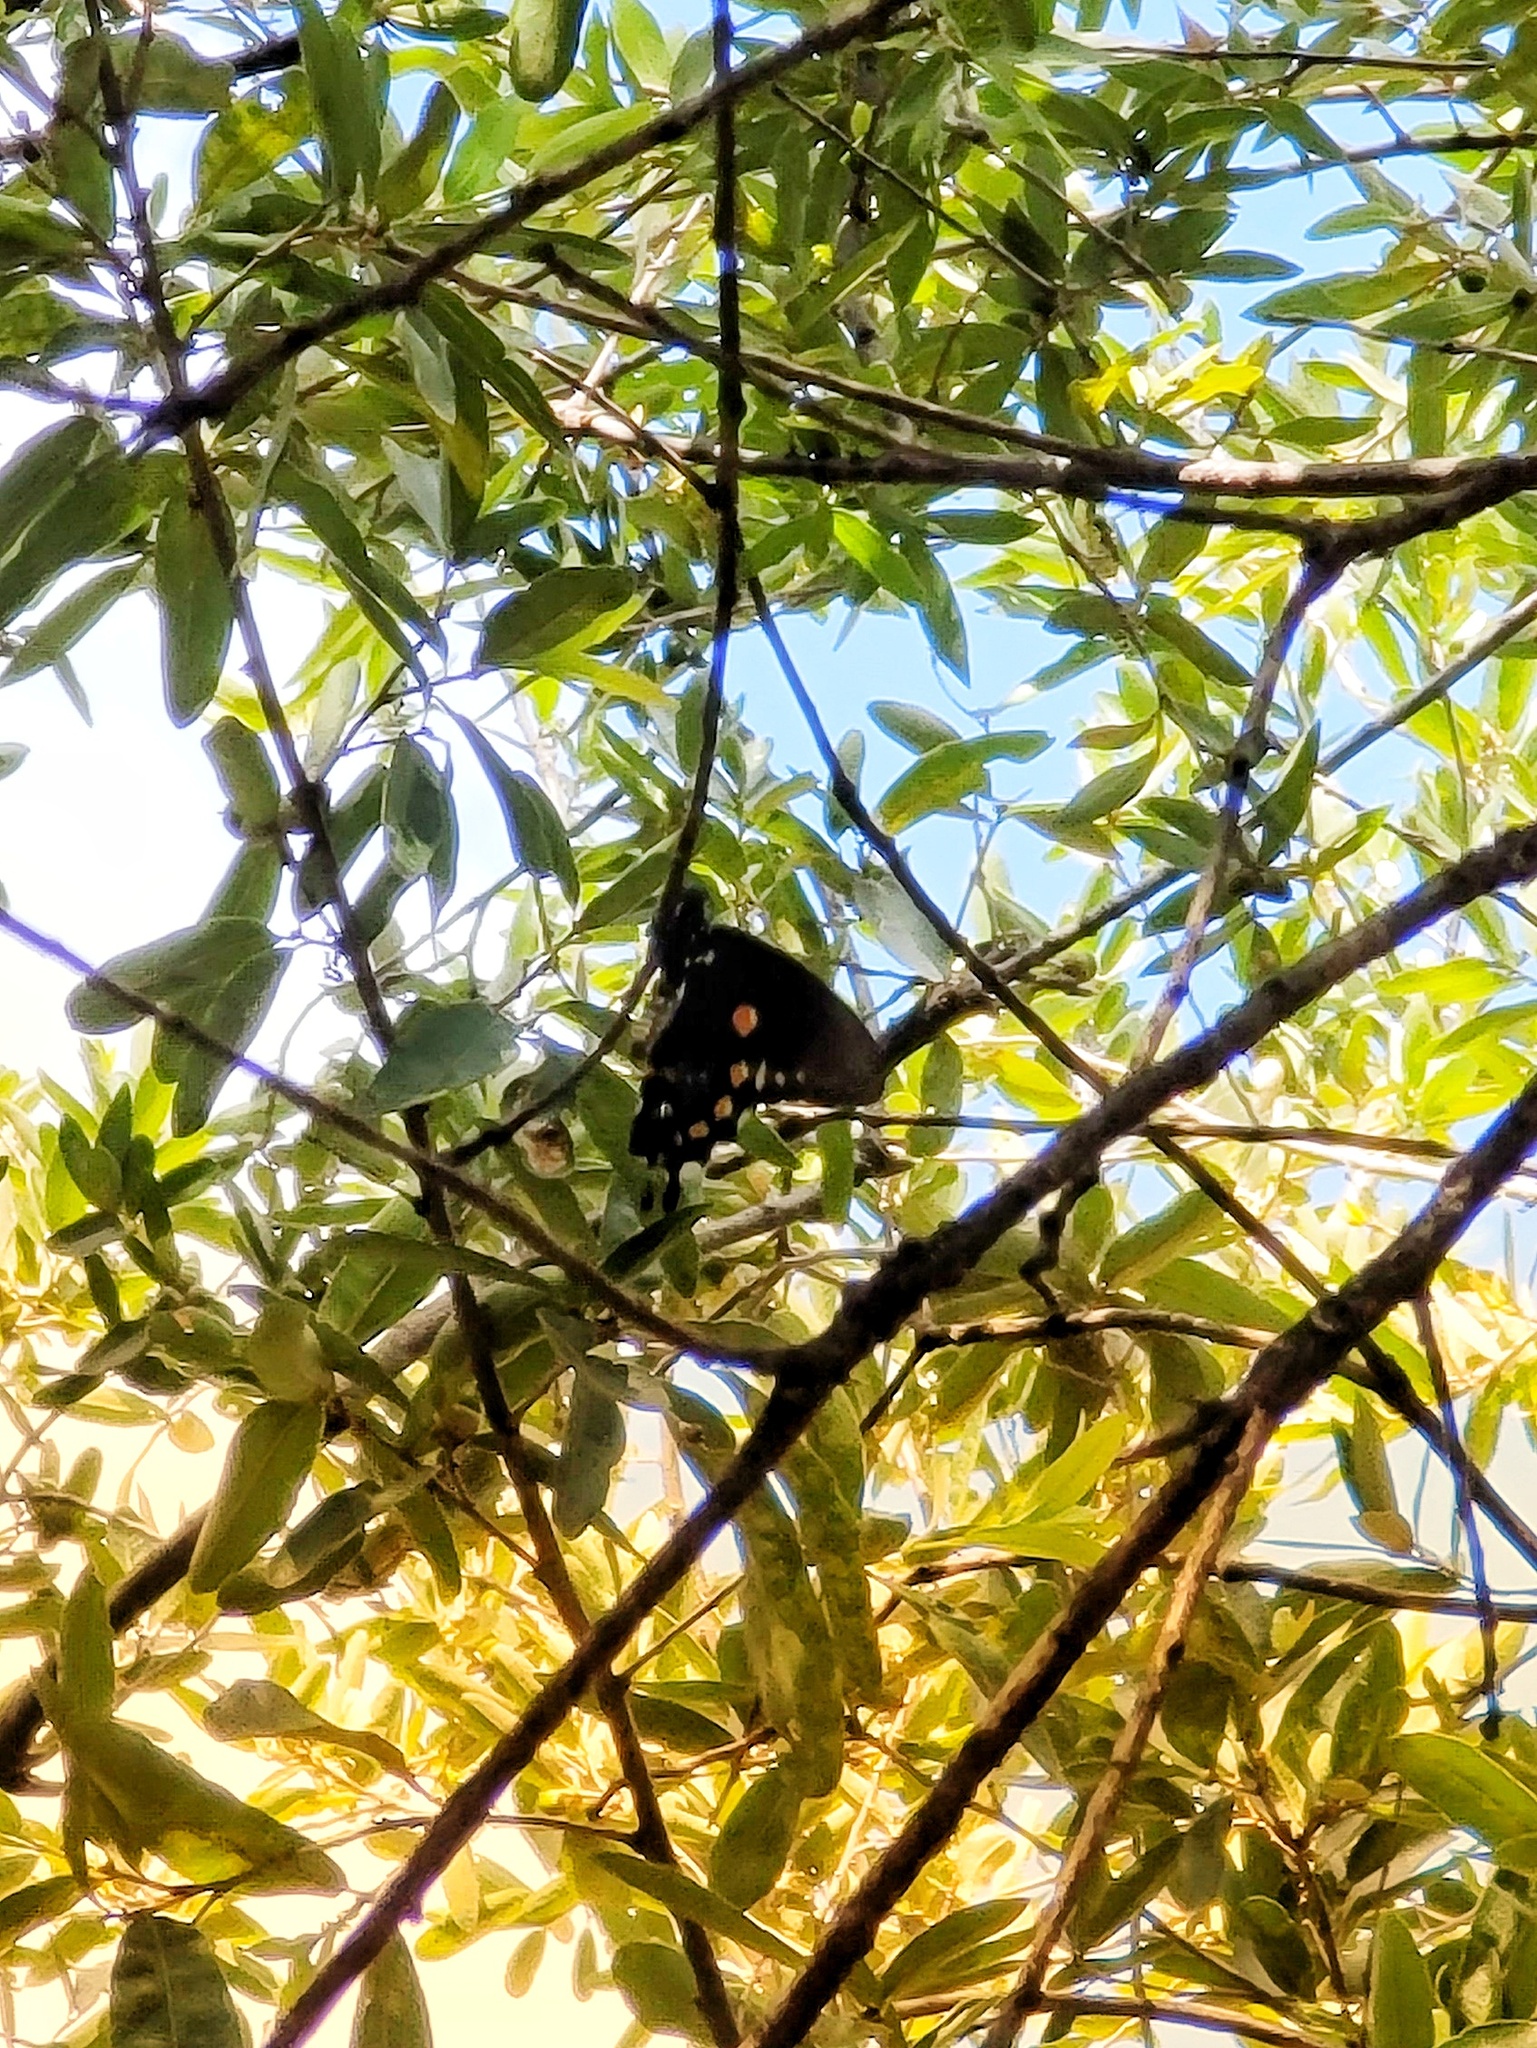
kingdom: Animalia
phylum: Arthropoda
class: Insecta
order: Lepidoptera
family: Papilionidae
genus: Battus
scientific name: Battus philenor
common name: Pipevine swallowtail
